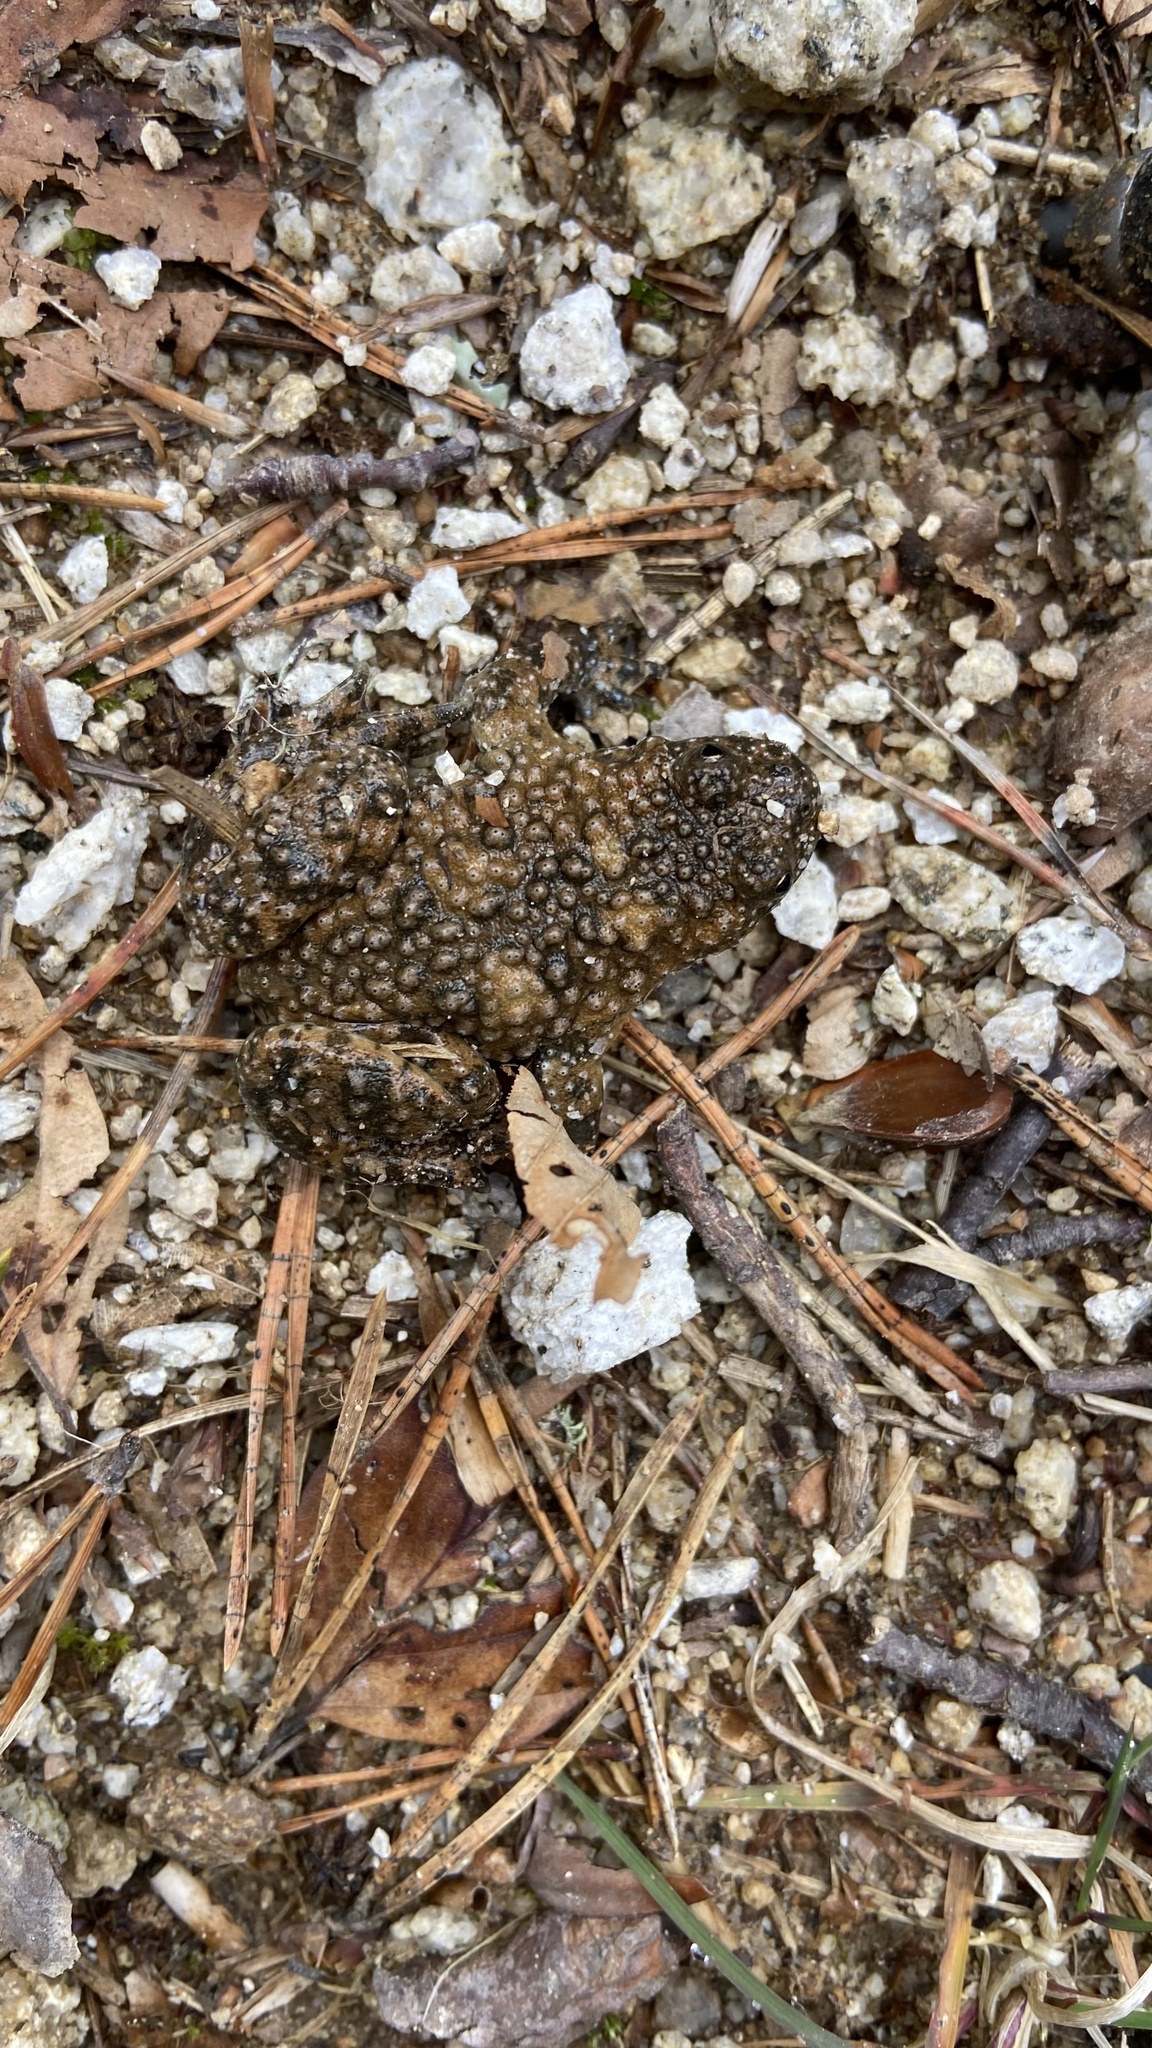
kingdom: Animalia
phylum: Chordata
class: Amphibia
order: Anura
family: Bombinatoridae
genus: Bombina
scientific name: Bombina variegata
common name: Yellow-bellied toad
